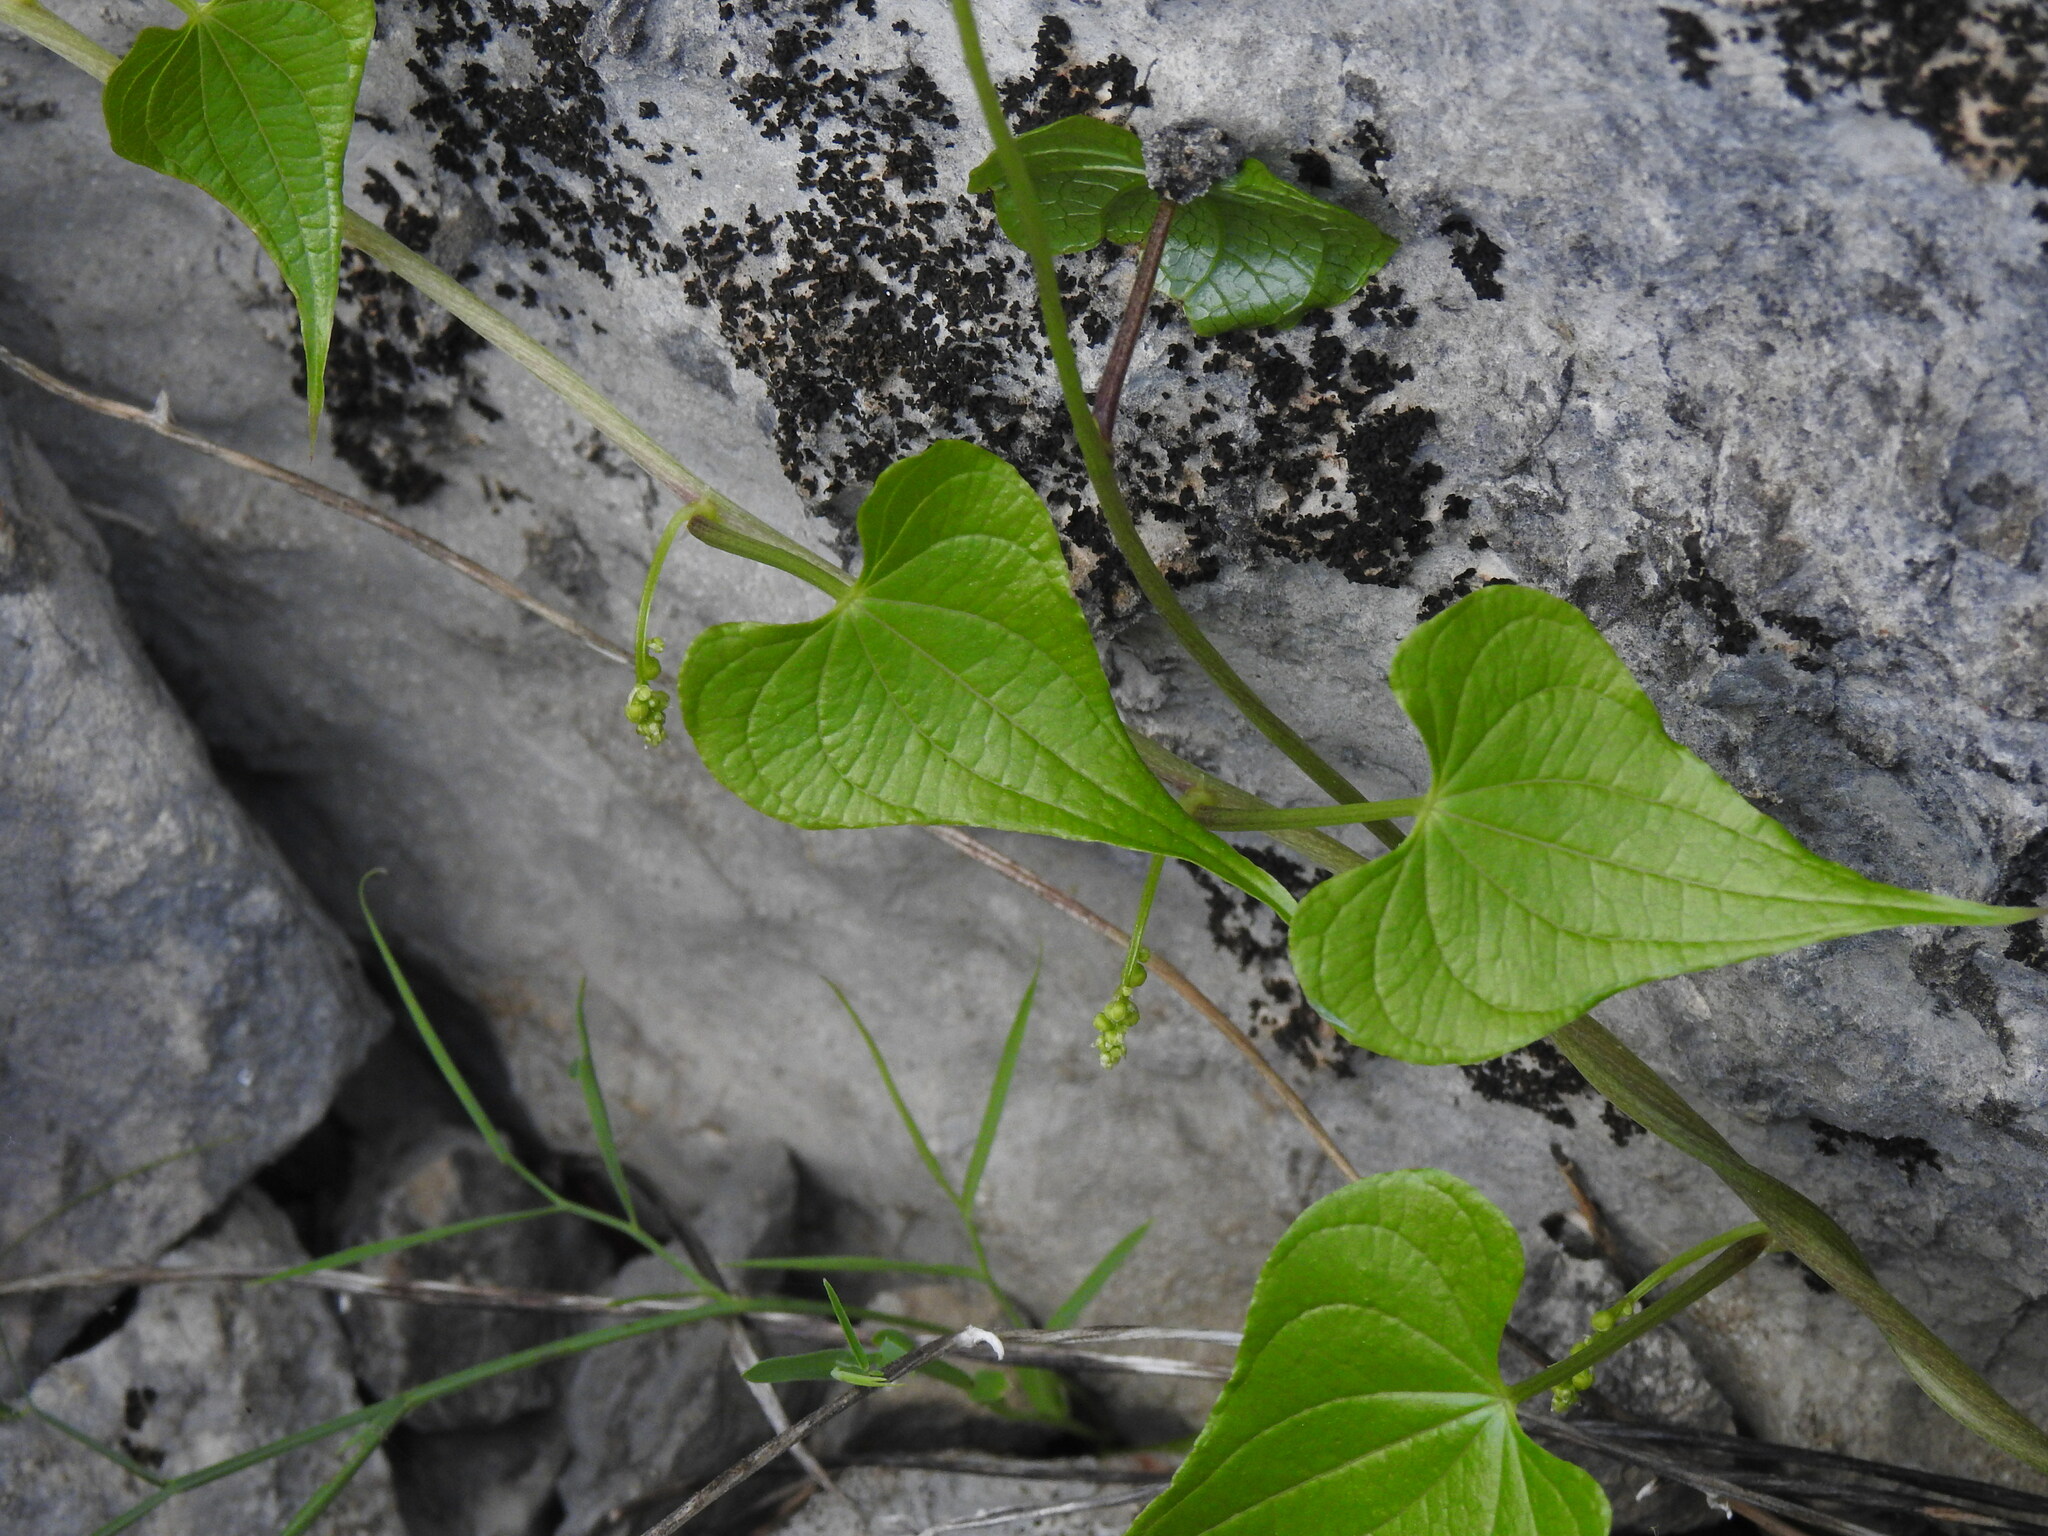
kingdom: Plantae
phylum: Tracheophyta
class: Liliopsida
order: Dioscoreales
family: Dioscoreaceae
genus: Dioscorea
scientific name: Dioscorea communis
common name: Black-bindweed
